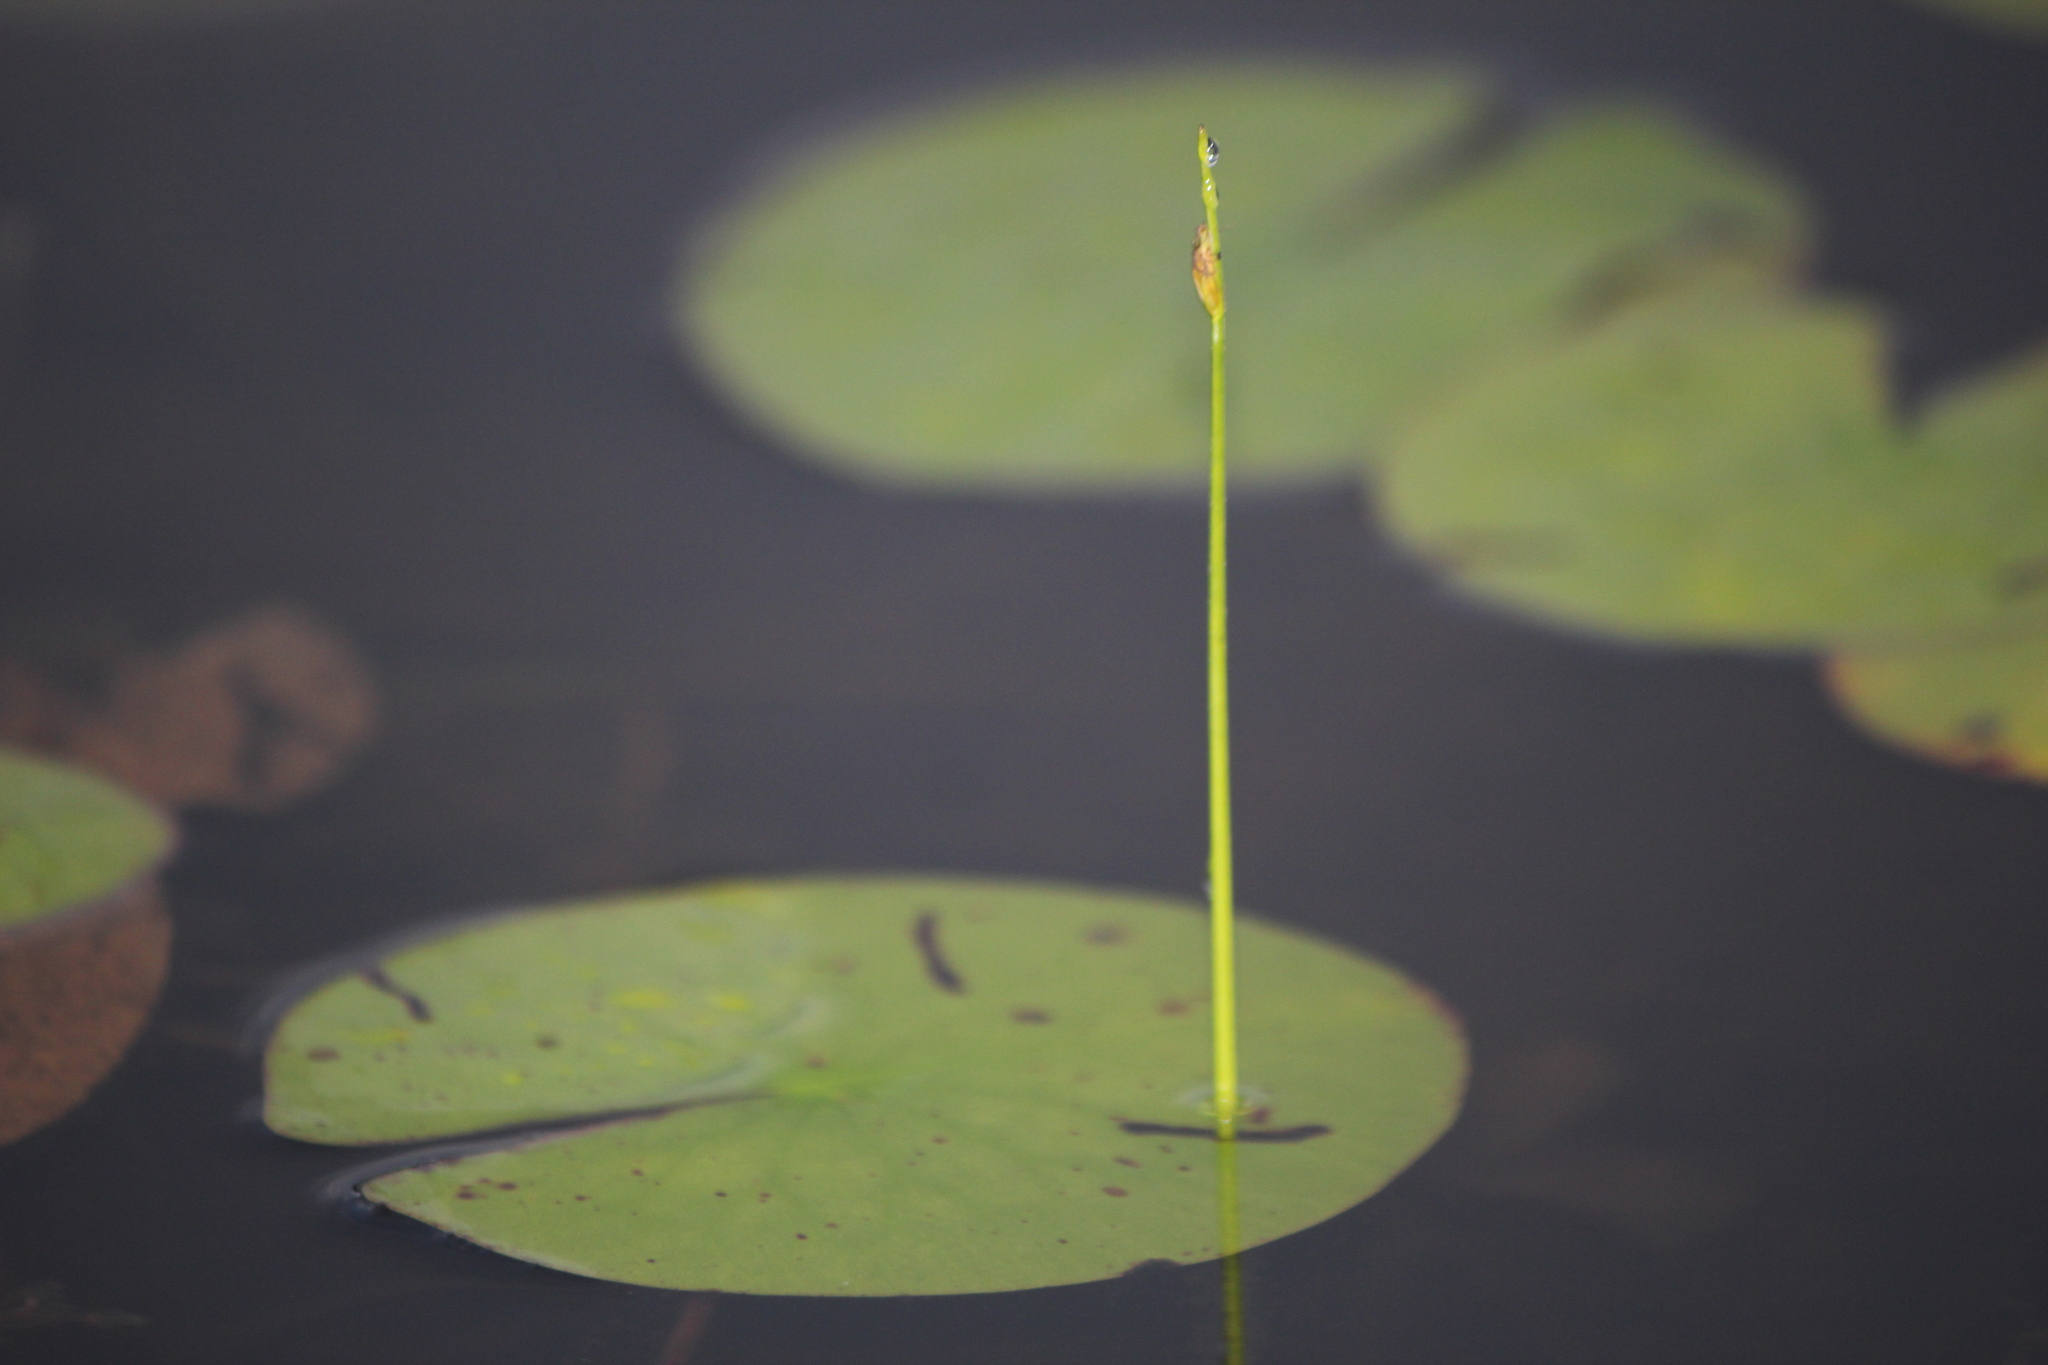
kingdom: Plantae
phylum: Tracheophyta
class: Liliopsida
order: Poales
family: Cyperaceae
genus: Schoenoplectus
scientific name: Schoenoplectus subterminalis
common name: Swaying bulrush
